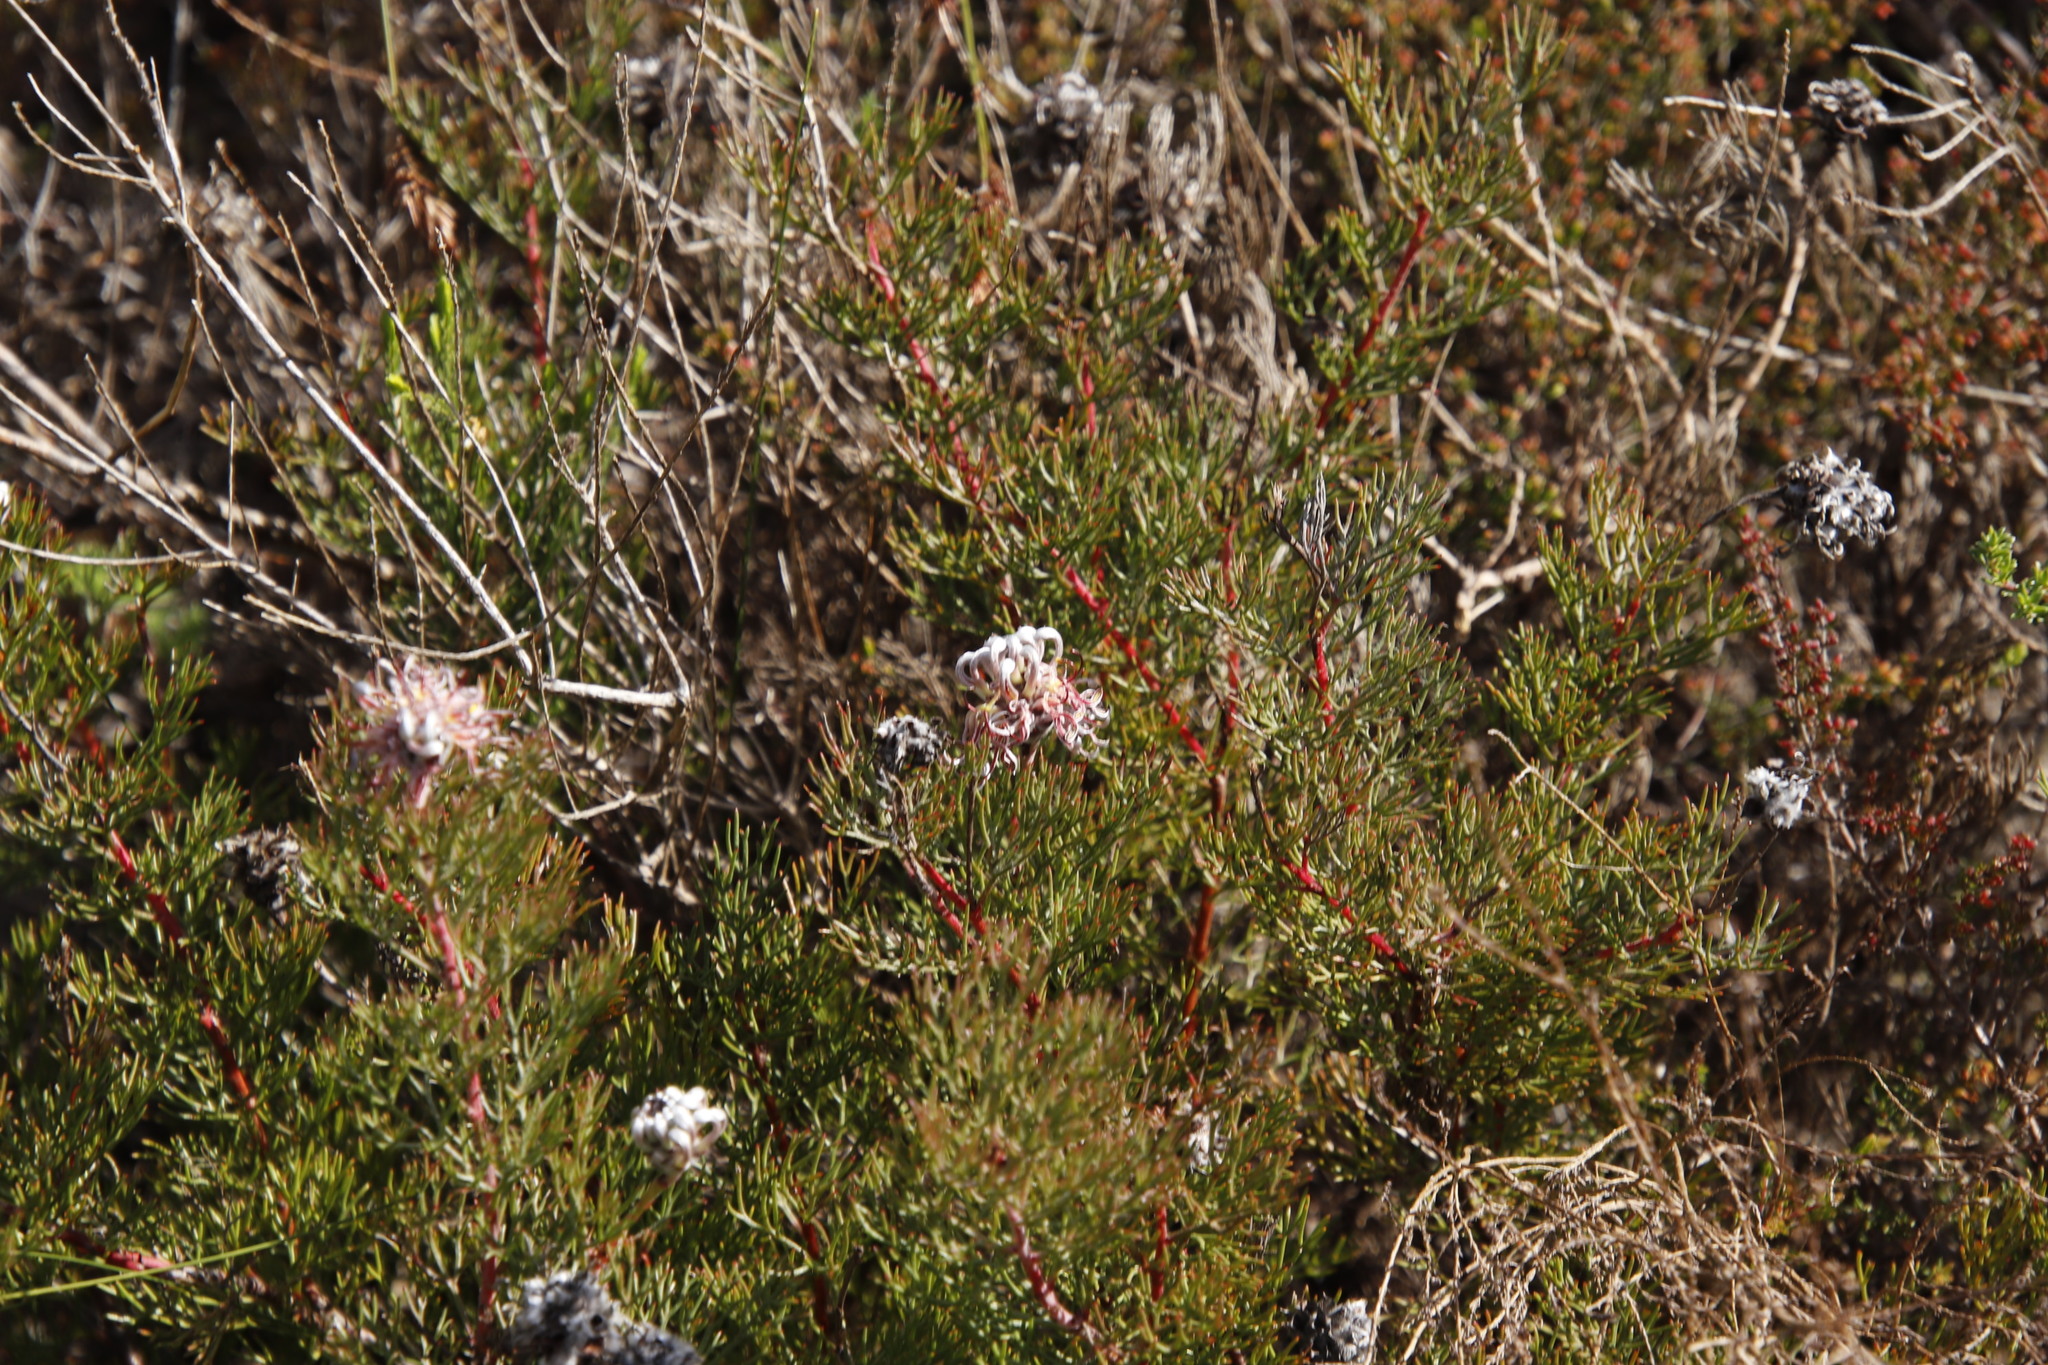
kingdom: Plantae
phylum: Tracheophyta
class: Magnoliopsida
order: Proteales
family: Proteaceae
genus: Serruria
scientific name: Serruria gremialis
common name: Riviersonderend spiderhead
